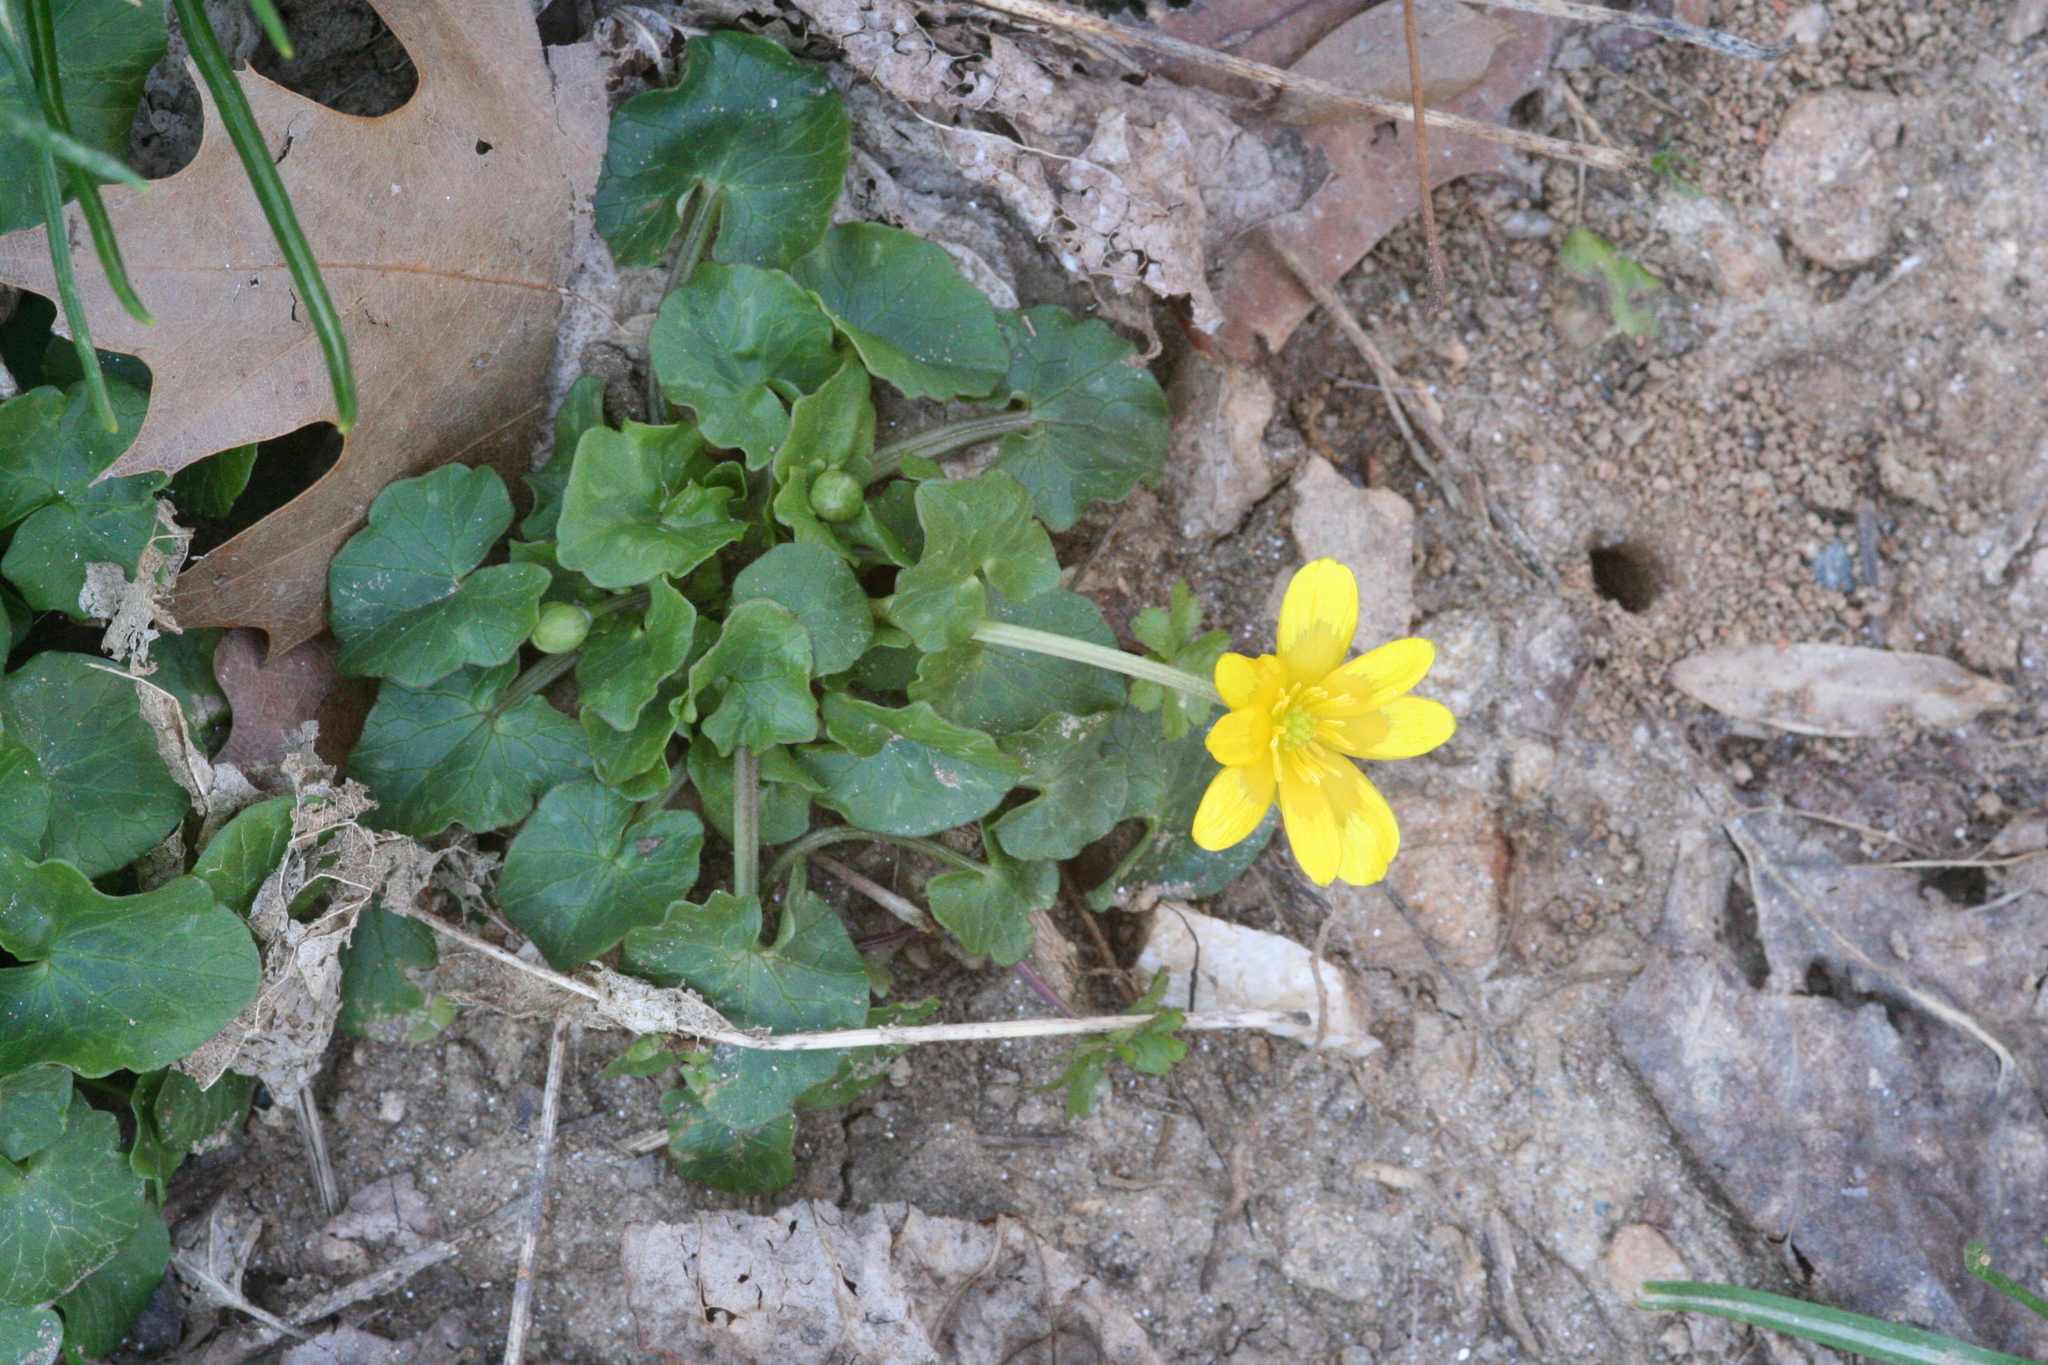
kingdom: Plantae
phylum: Tracheophyta
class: Magnoliopsida
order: Ranunculales
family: Ranunculaceae
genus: Ficaria
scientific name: Ficaria verna
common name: Lesser celandine
